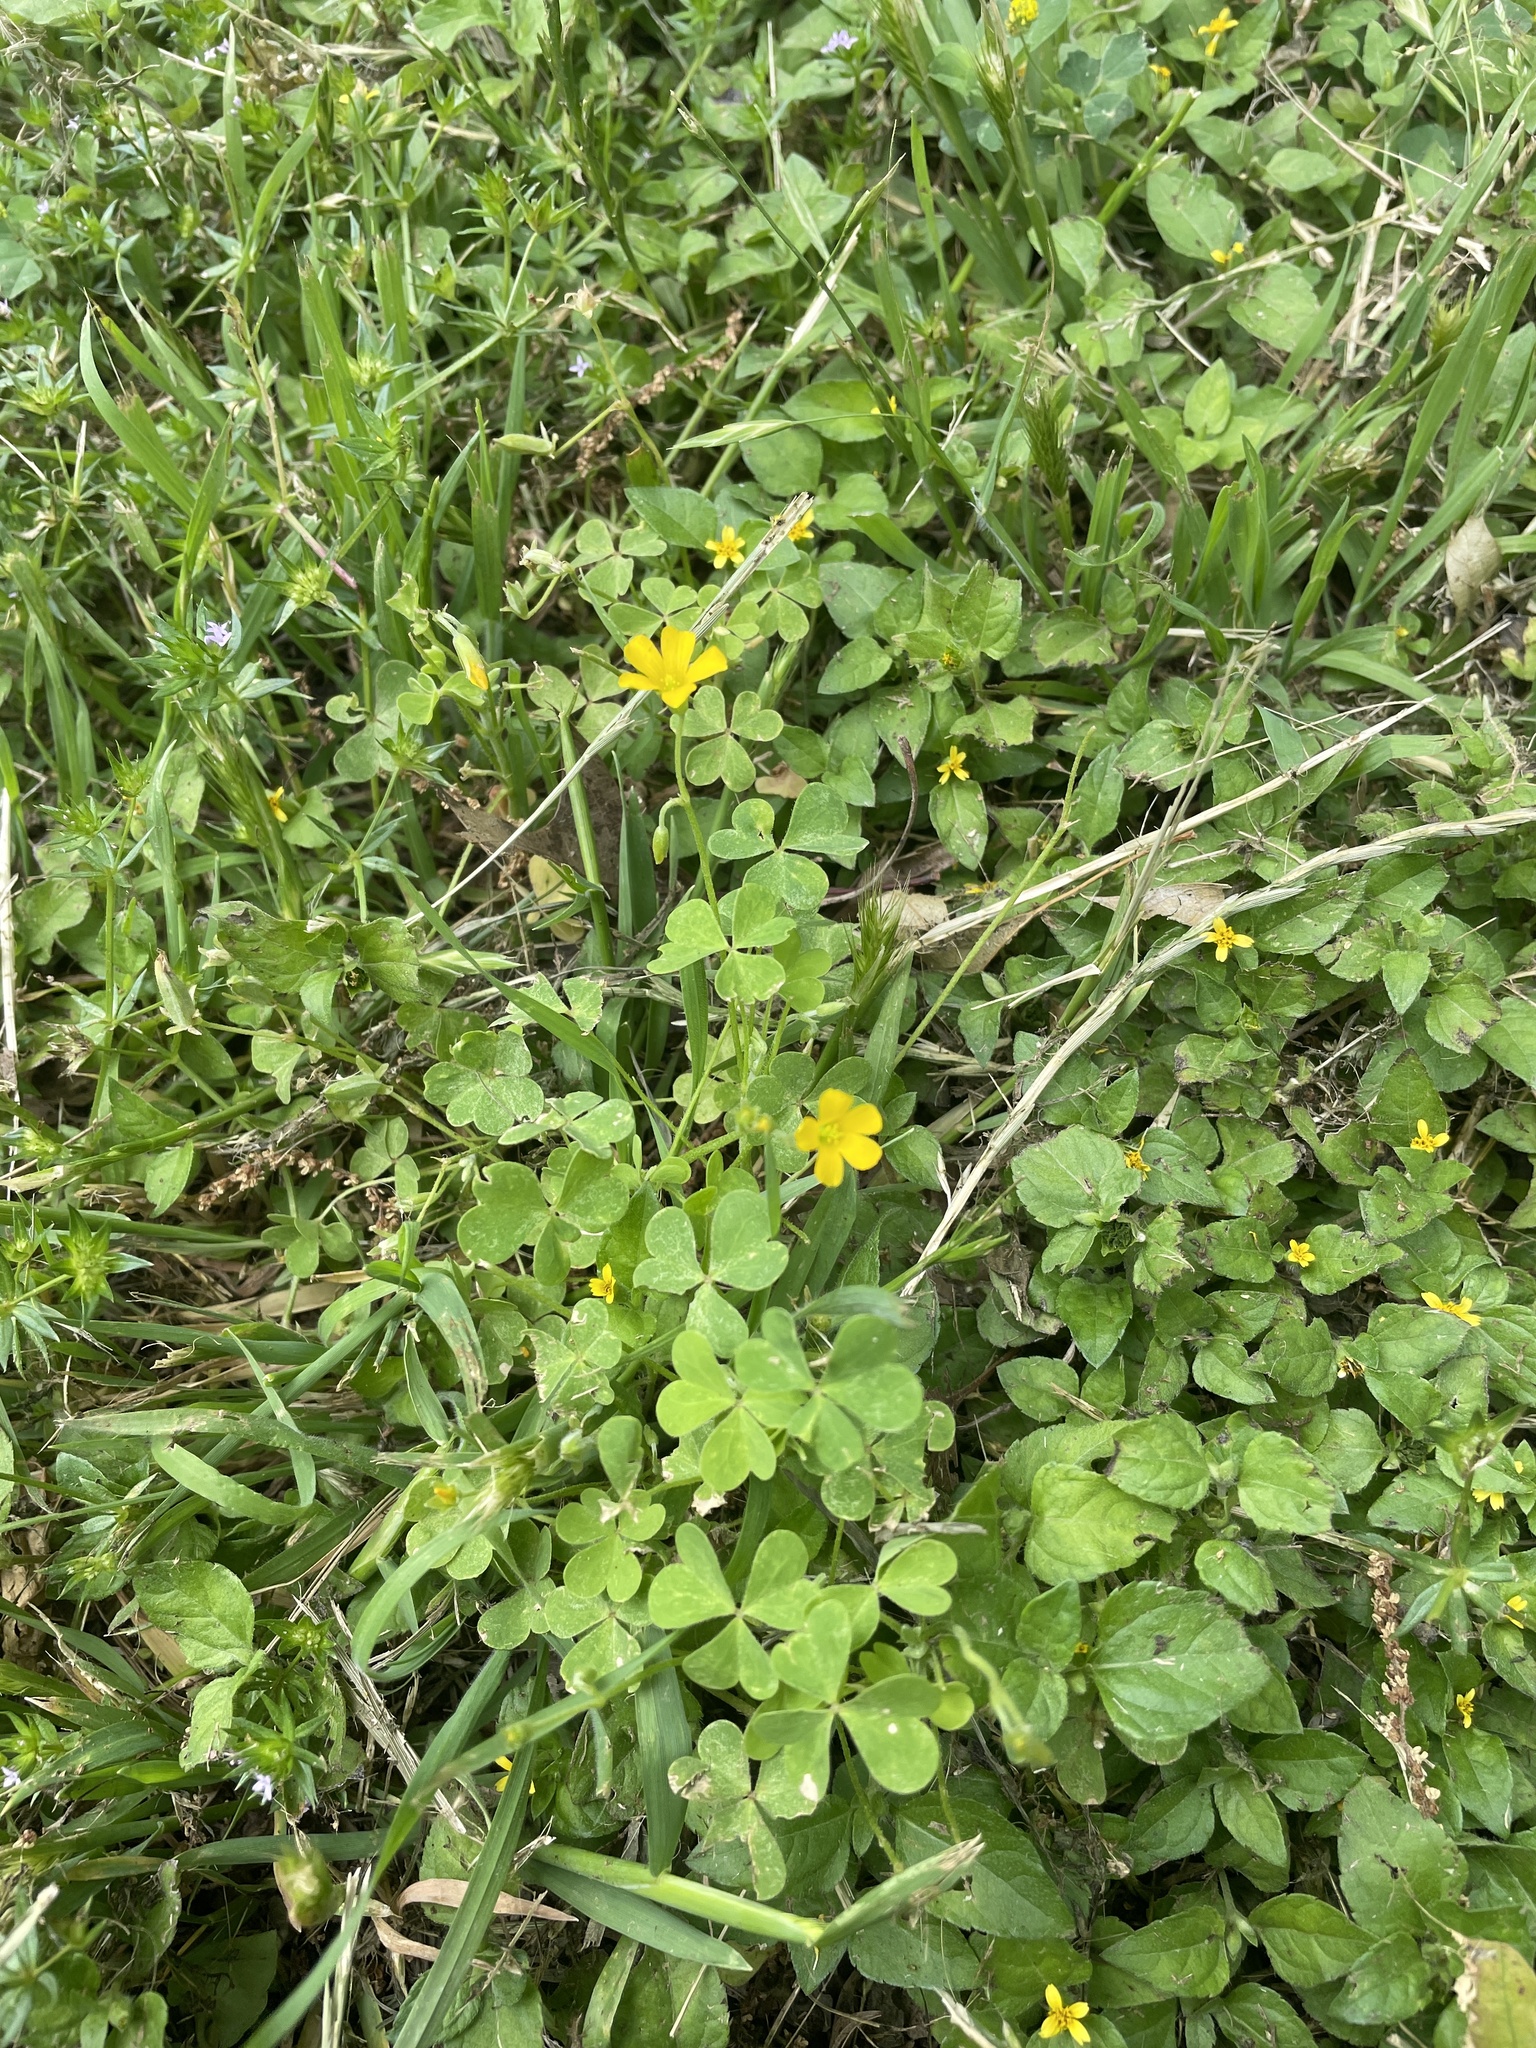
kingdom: Plantae
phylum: Tracheophyta
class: Magnoliopsida
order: Oxalidales
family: Oxalidaceae
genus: Oxalis
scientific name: Oxalis dillenii
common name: Sussex yellow-sorrel
